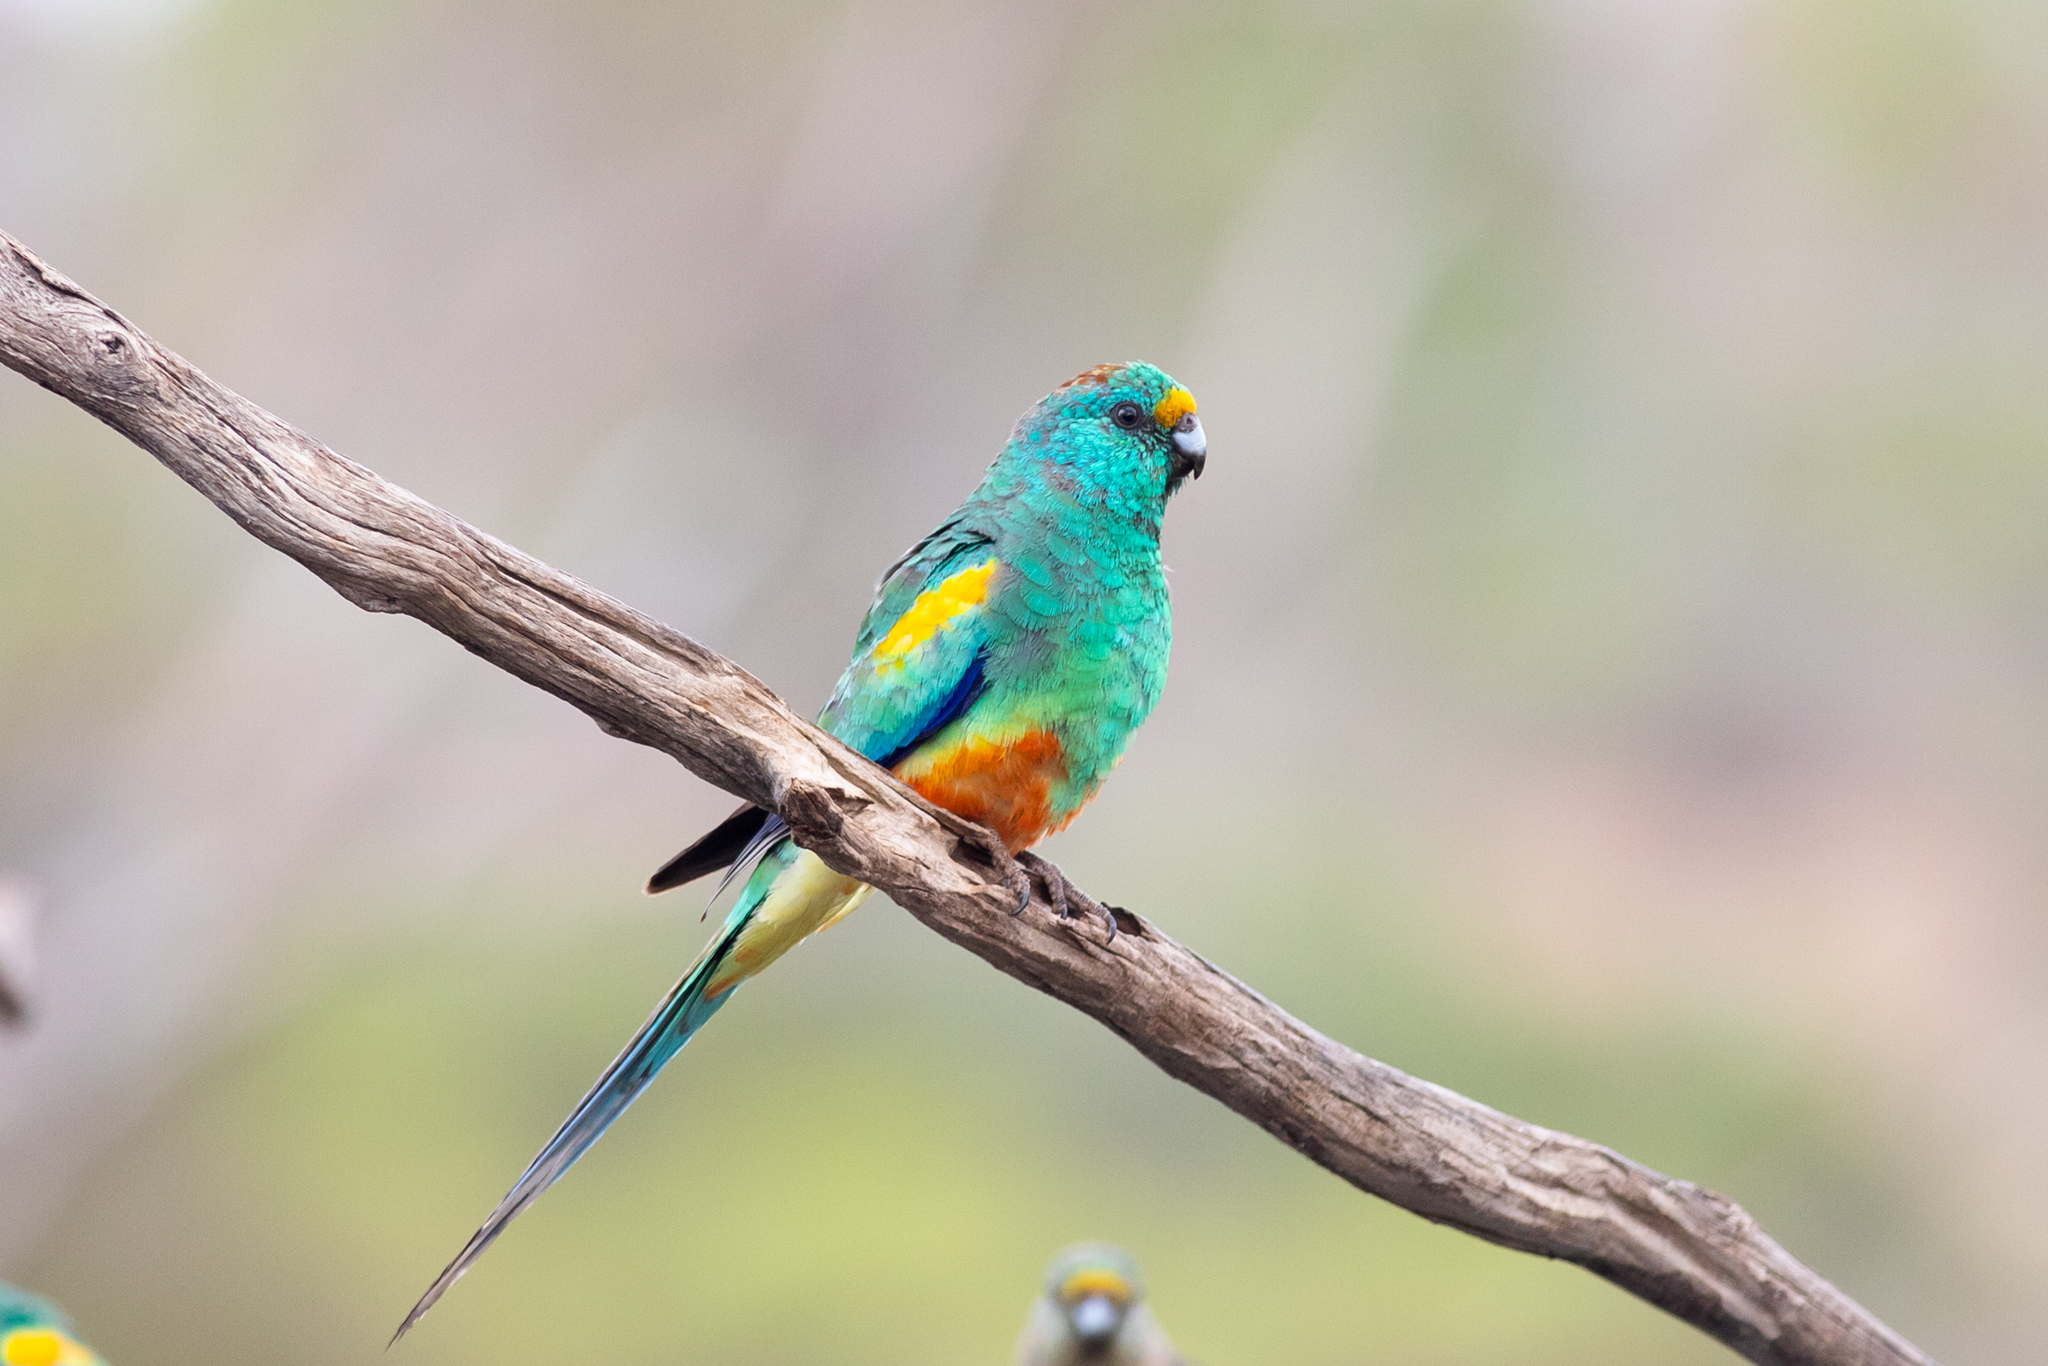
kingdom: Animalia
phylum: Chordata
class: Aves
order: Psittaciformes
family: Psittaculidae
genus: Psephotellus
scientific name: Psephotellus varius
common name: Mulga parrot
